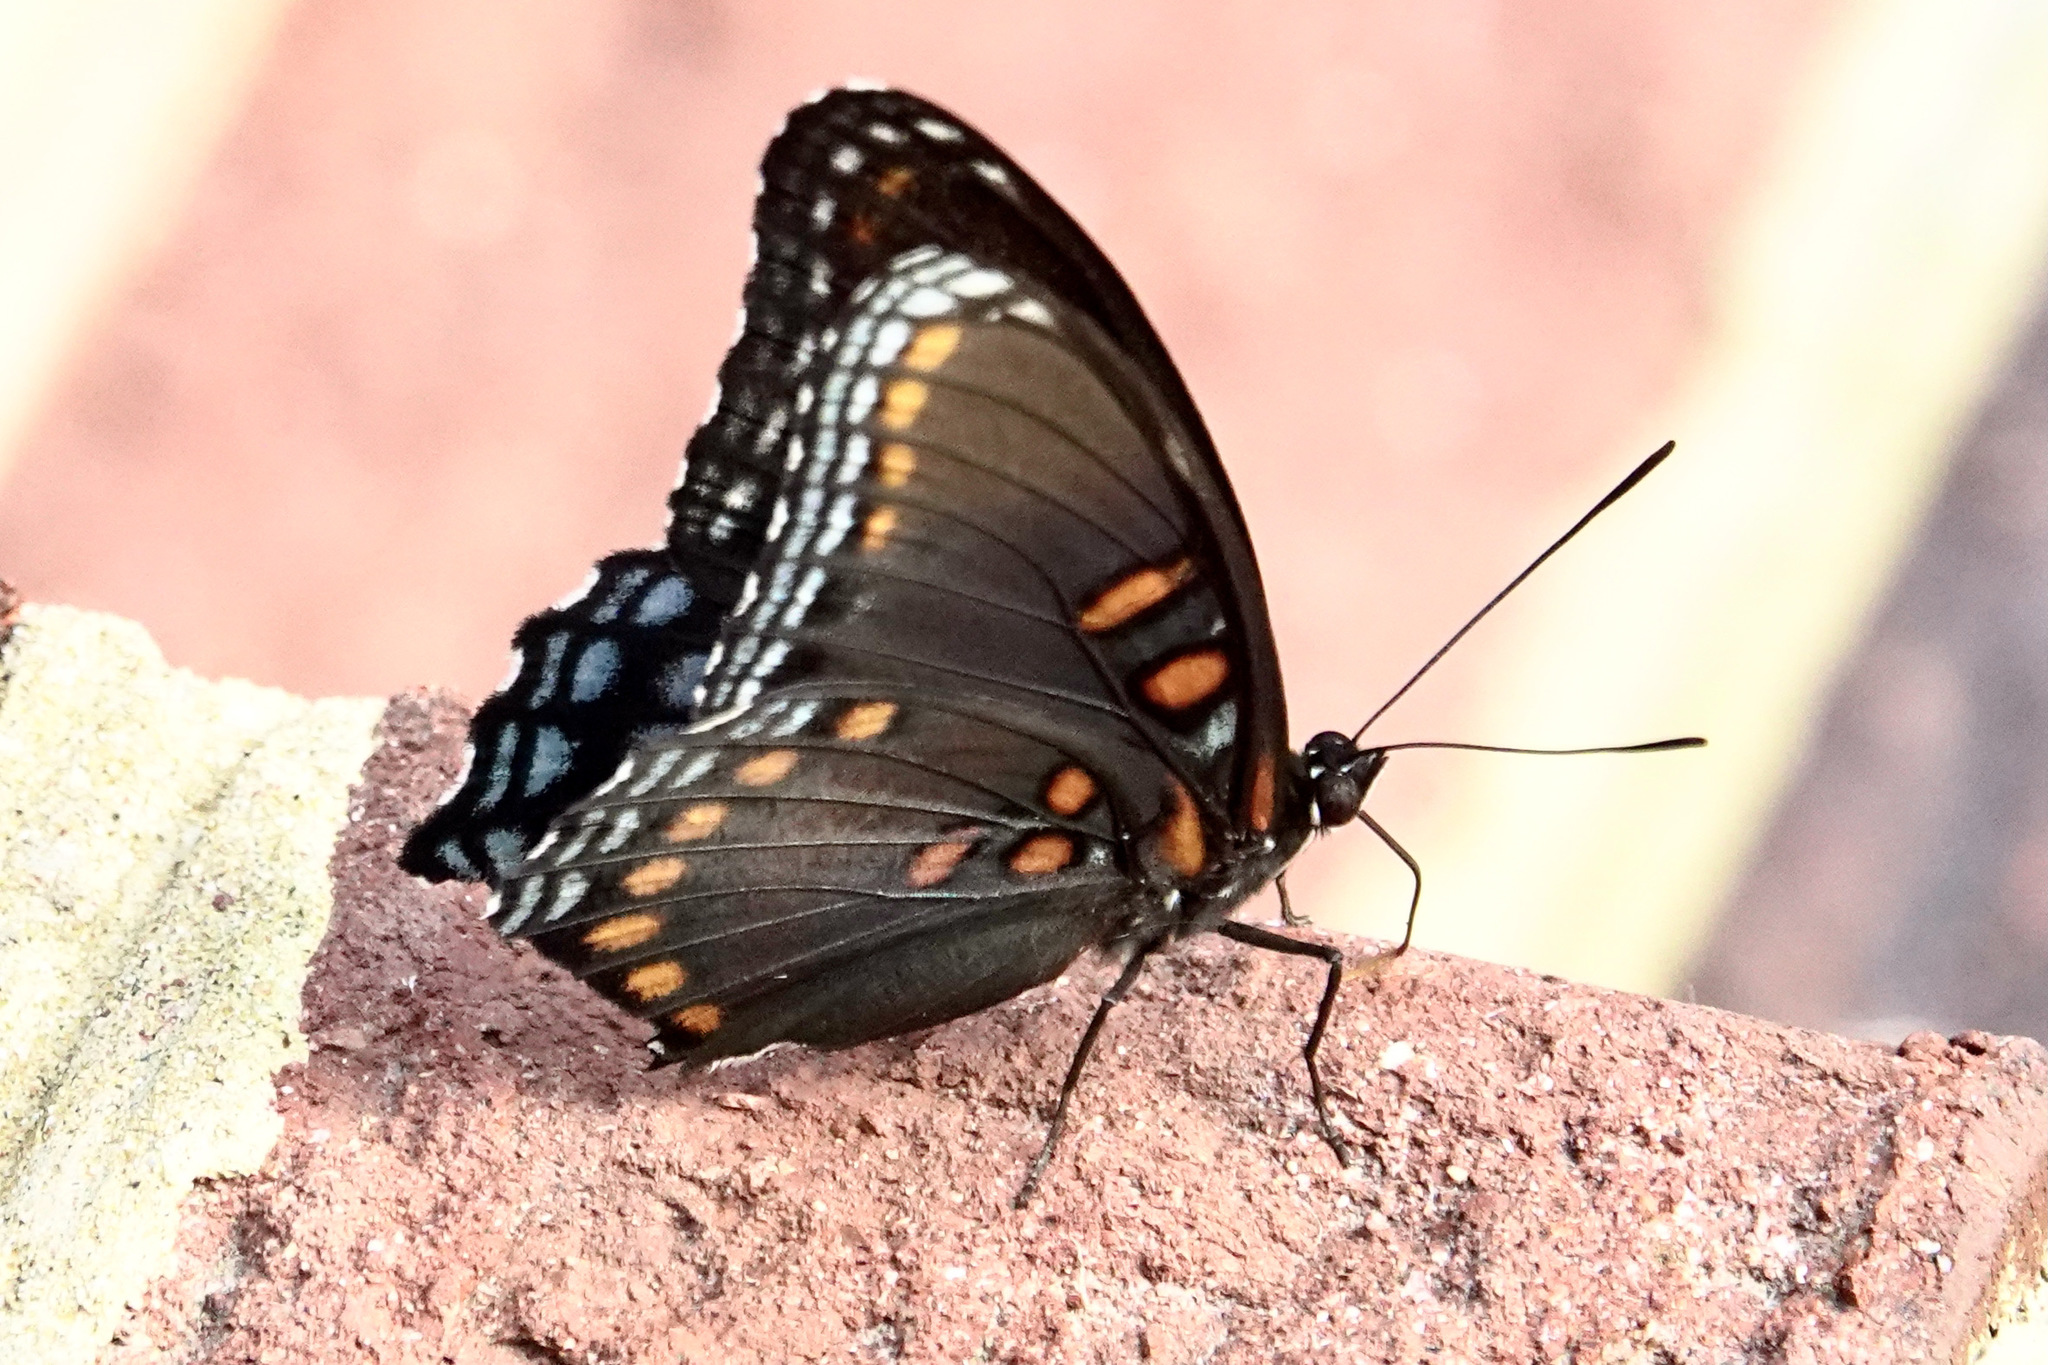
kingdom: Animalia
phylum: Arthropoda
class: Insecta
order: Lepidoptera
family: Nymphalidae
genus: Limenitis
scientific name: Limenitis astyanax
